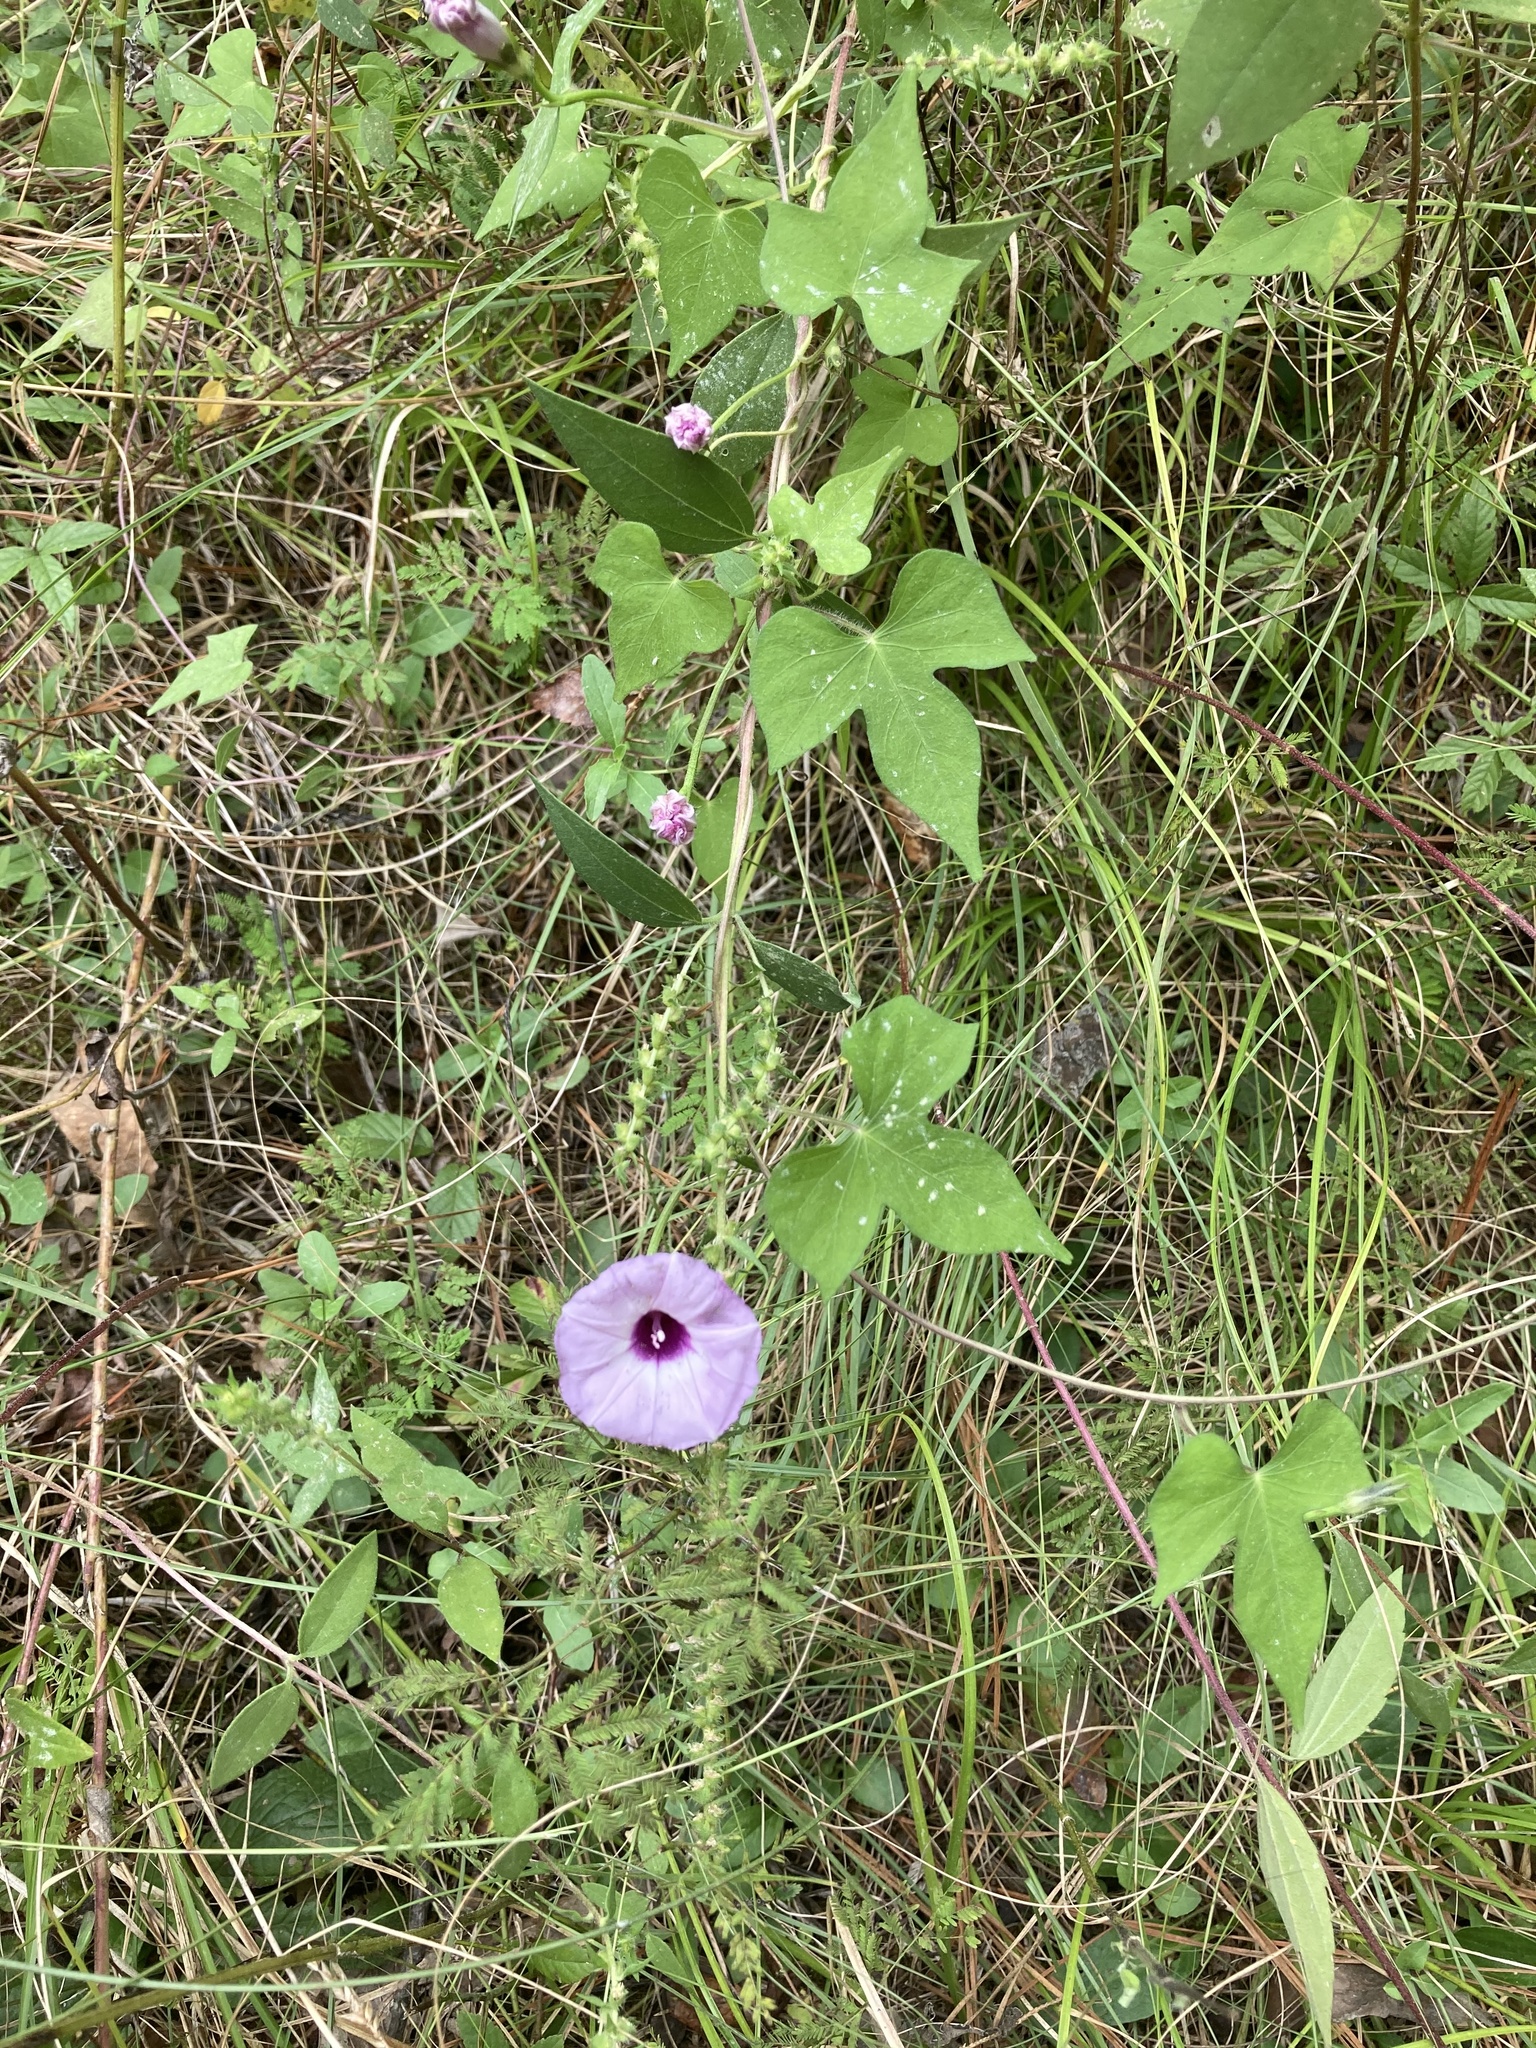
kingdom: Plantae
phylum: Tracheophyta
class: Magnoliopsida
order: Solanales
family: Convolvulaceae
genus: Ipomoea
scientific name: Ipomoea cordatotriloba
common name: Cotton morning glory
